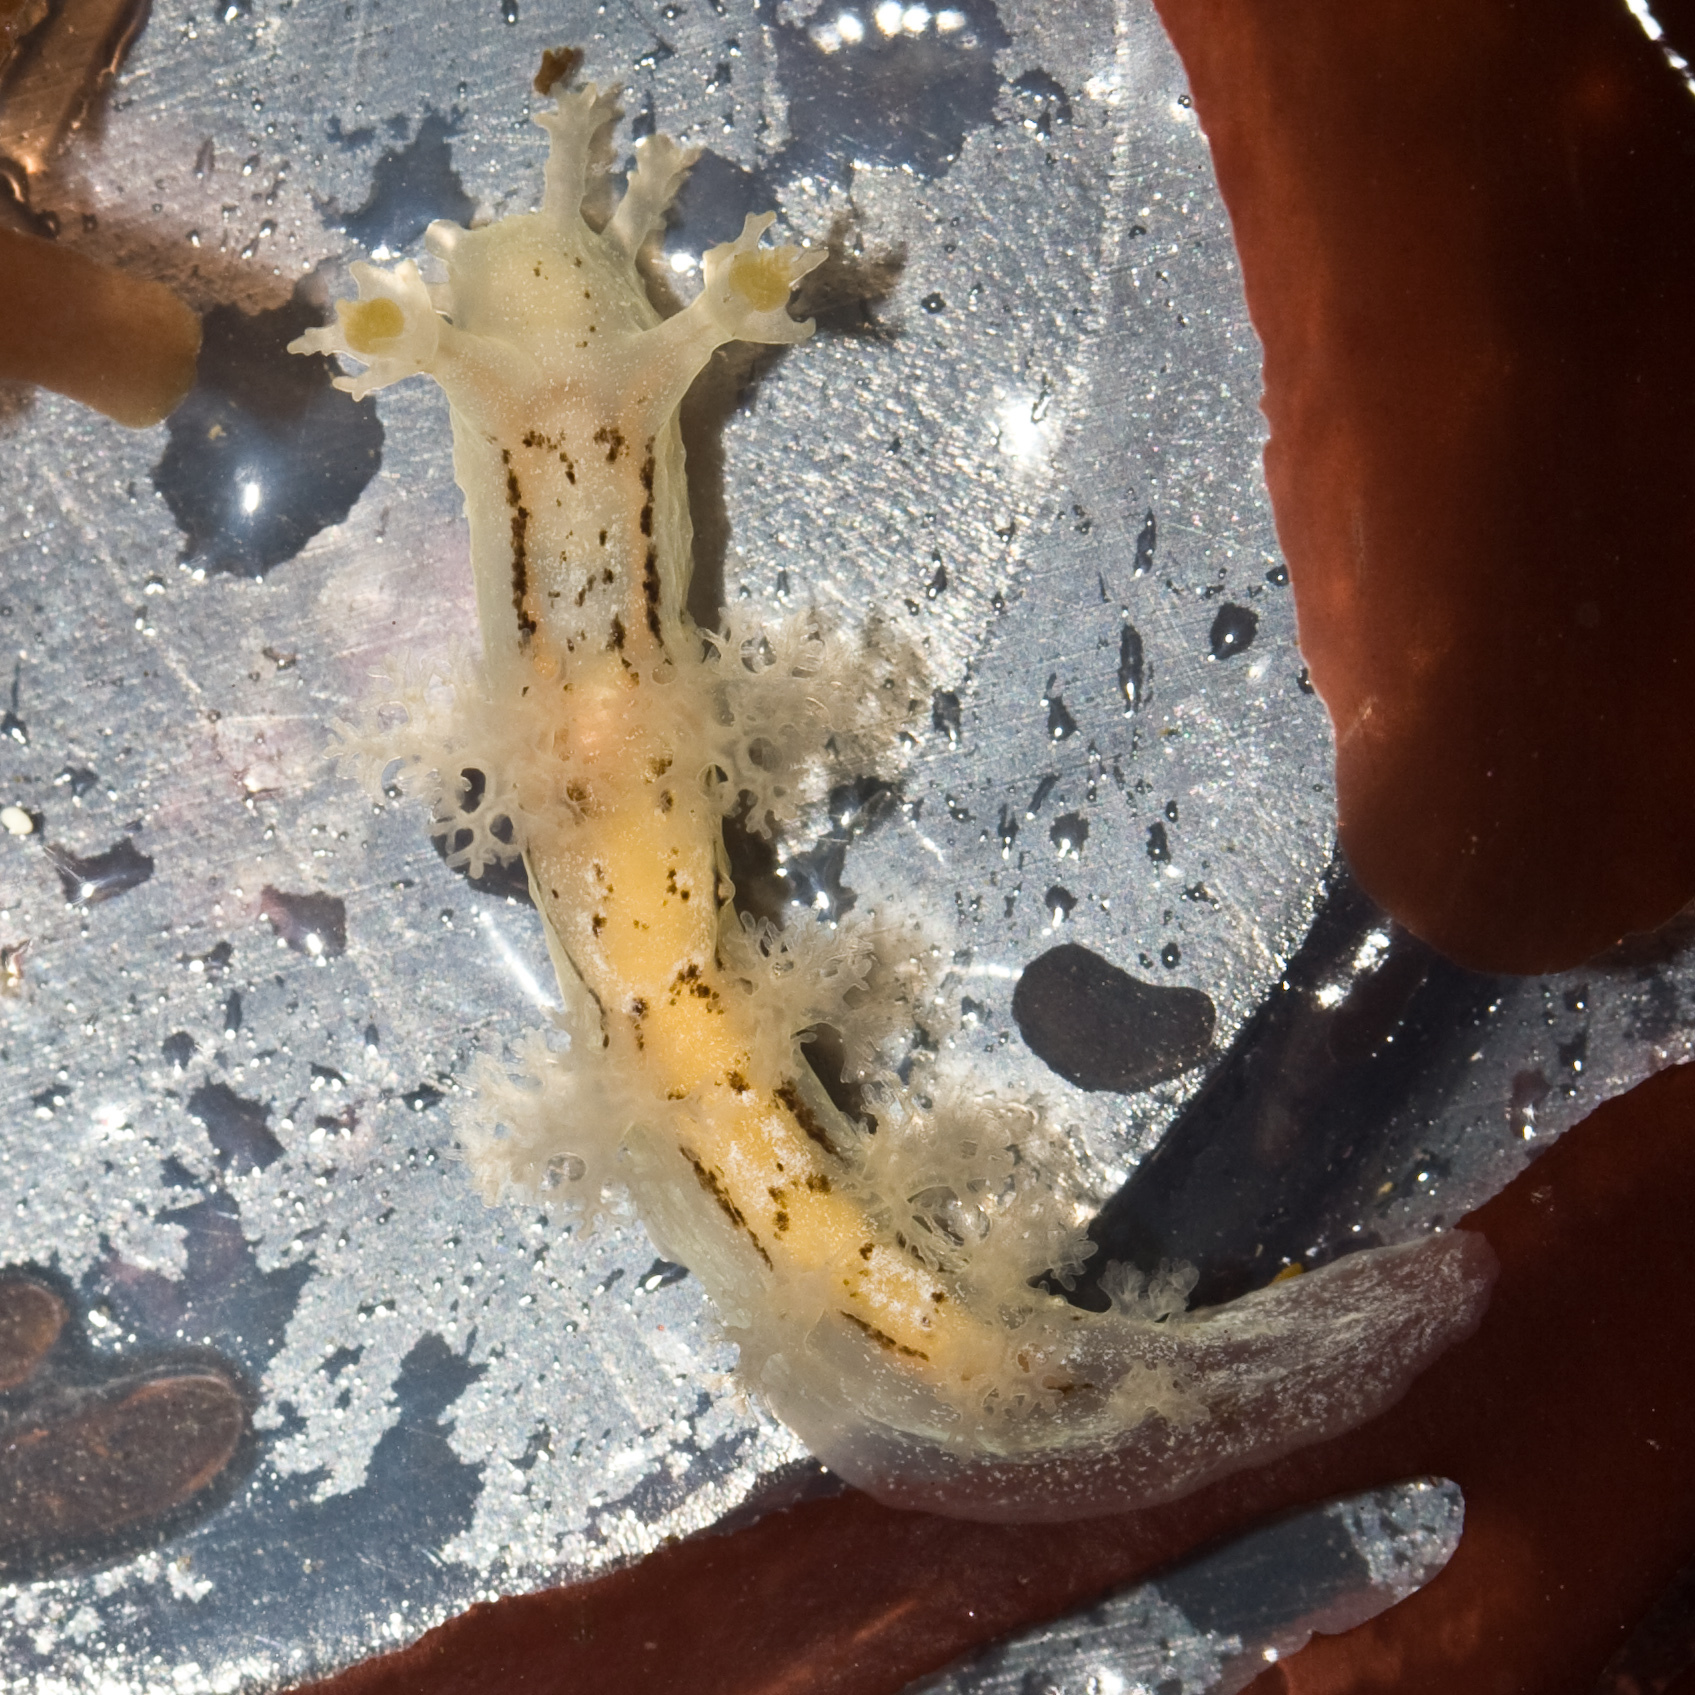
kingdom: Animalia
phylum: Mollusca
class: Gastropoda
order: Nudibranchia
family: Dendronotidae
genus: Dendronotus
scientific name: Dendronotus subramosus
